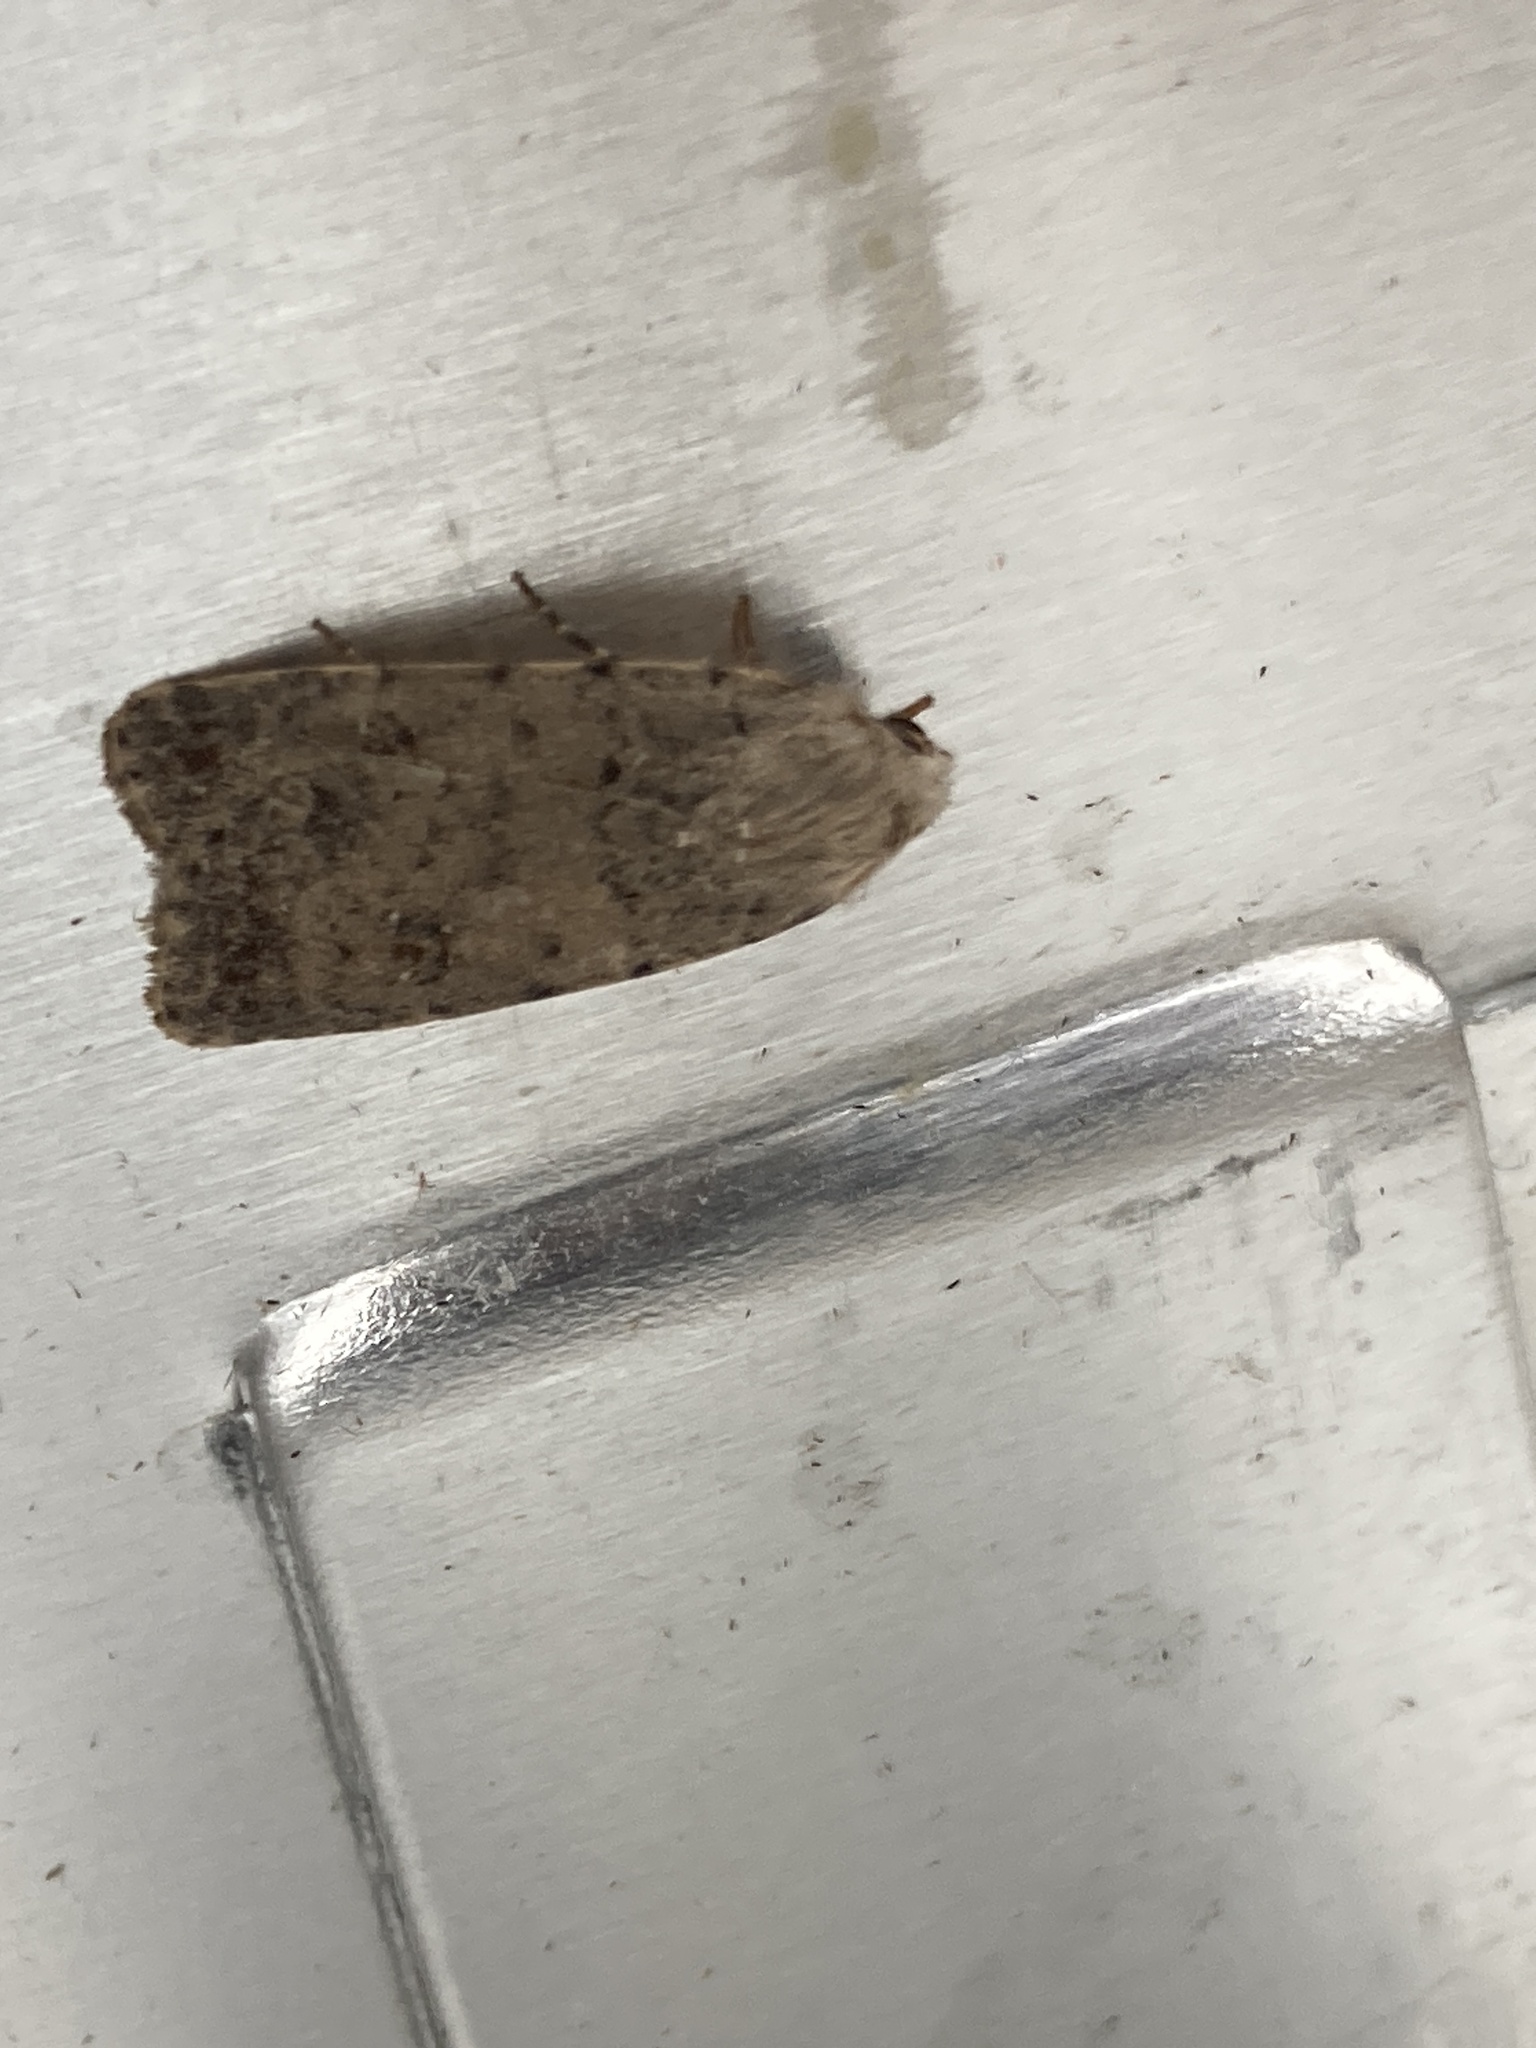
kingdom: Animalia
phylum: Arthropoda
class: Insecta
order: Lepidoptera
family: Noctuidae
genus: Caradrina
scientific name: Caradrina clavipalpis
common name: Pale mottled willow
